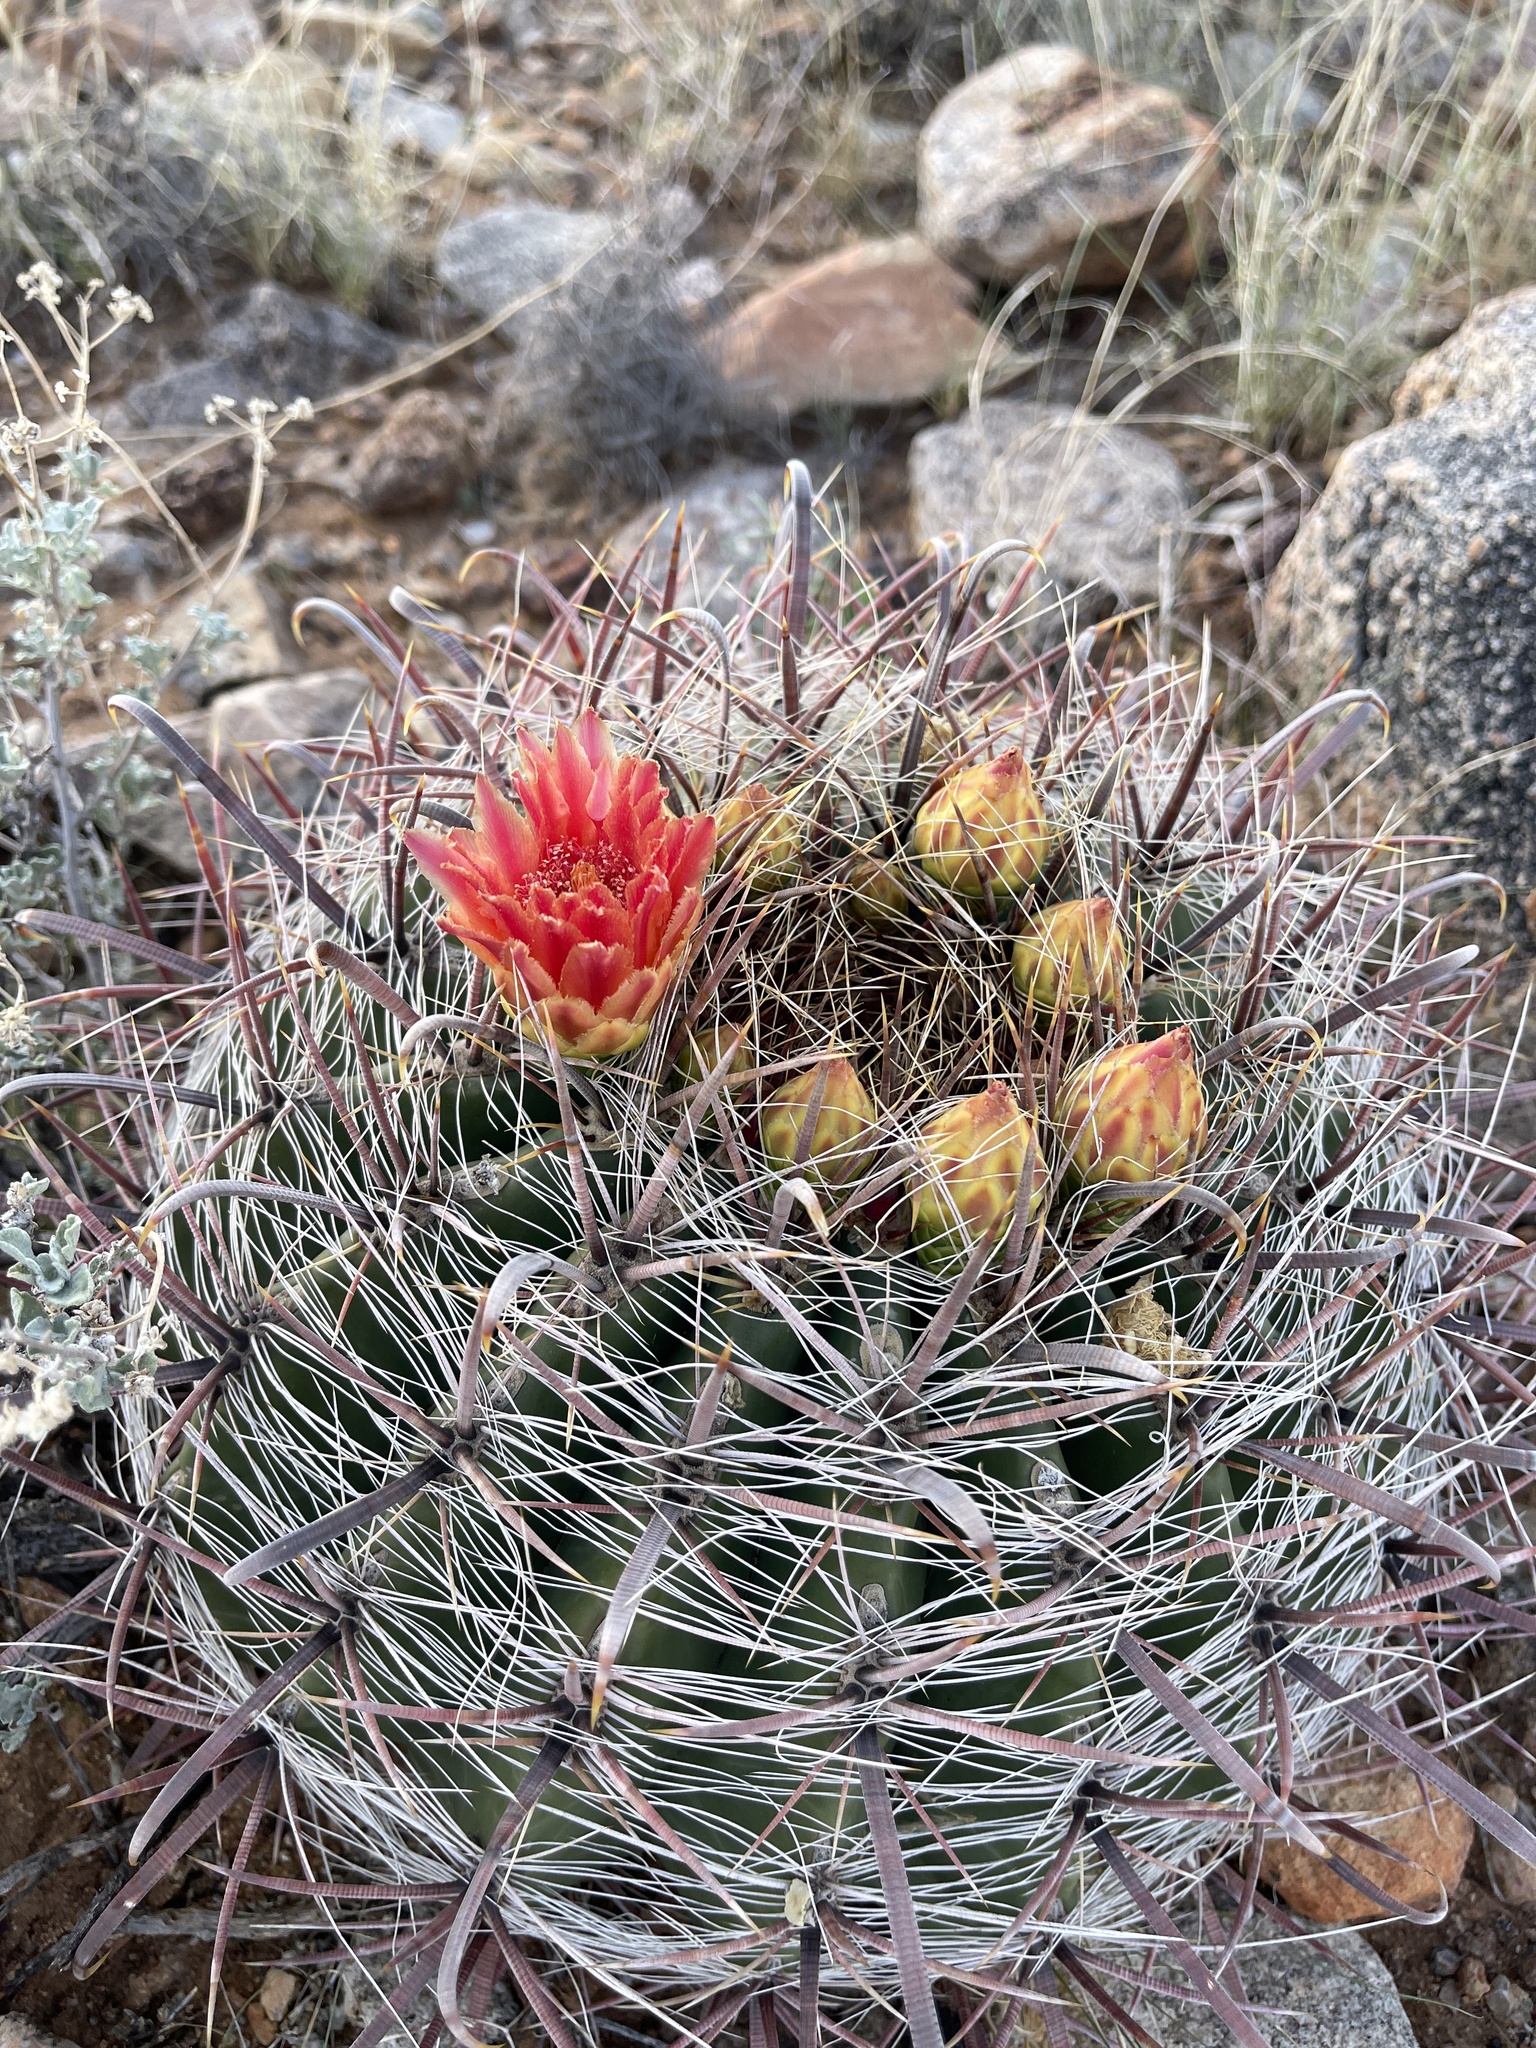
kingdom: Plantae
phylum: Tracheophyta
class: Magnoliopsida
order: Caryophyllales
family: Cactaceae
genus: Ferocactus
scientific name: Ferocactus wislizeni
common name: Candy barrel cactus
